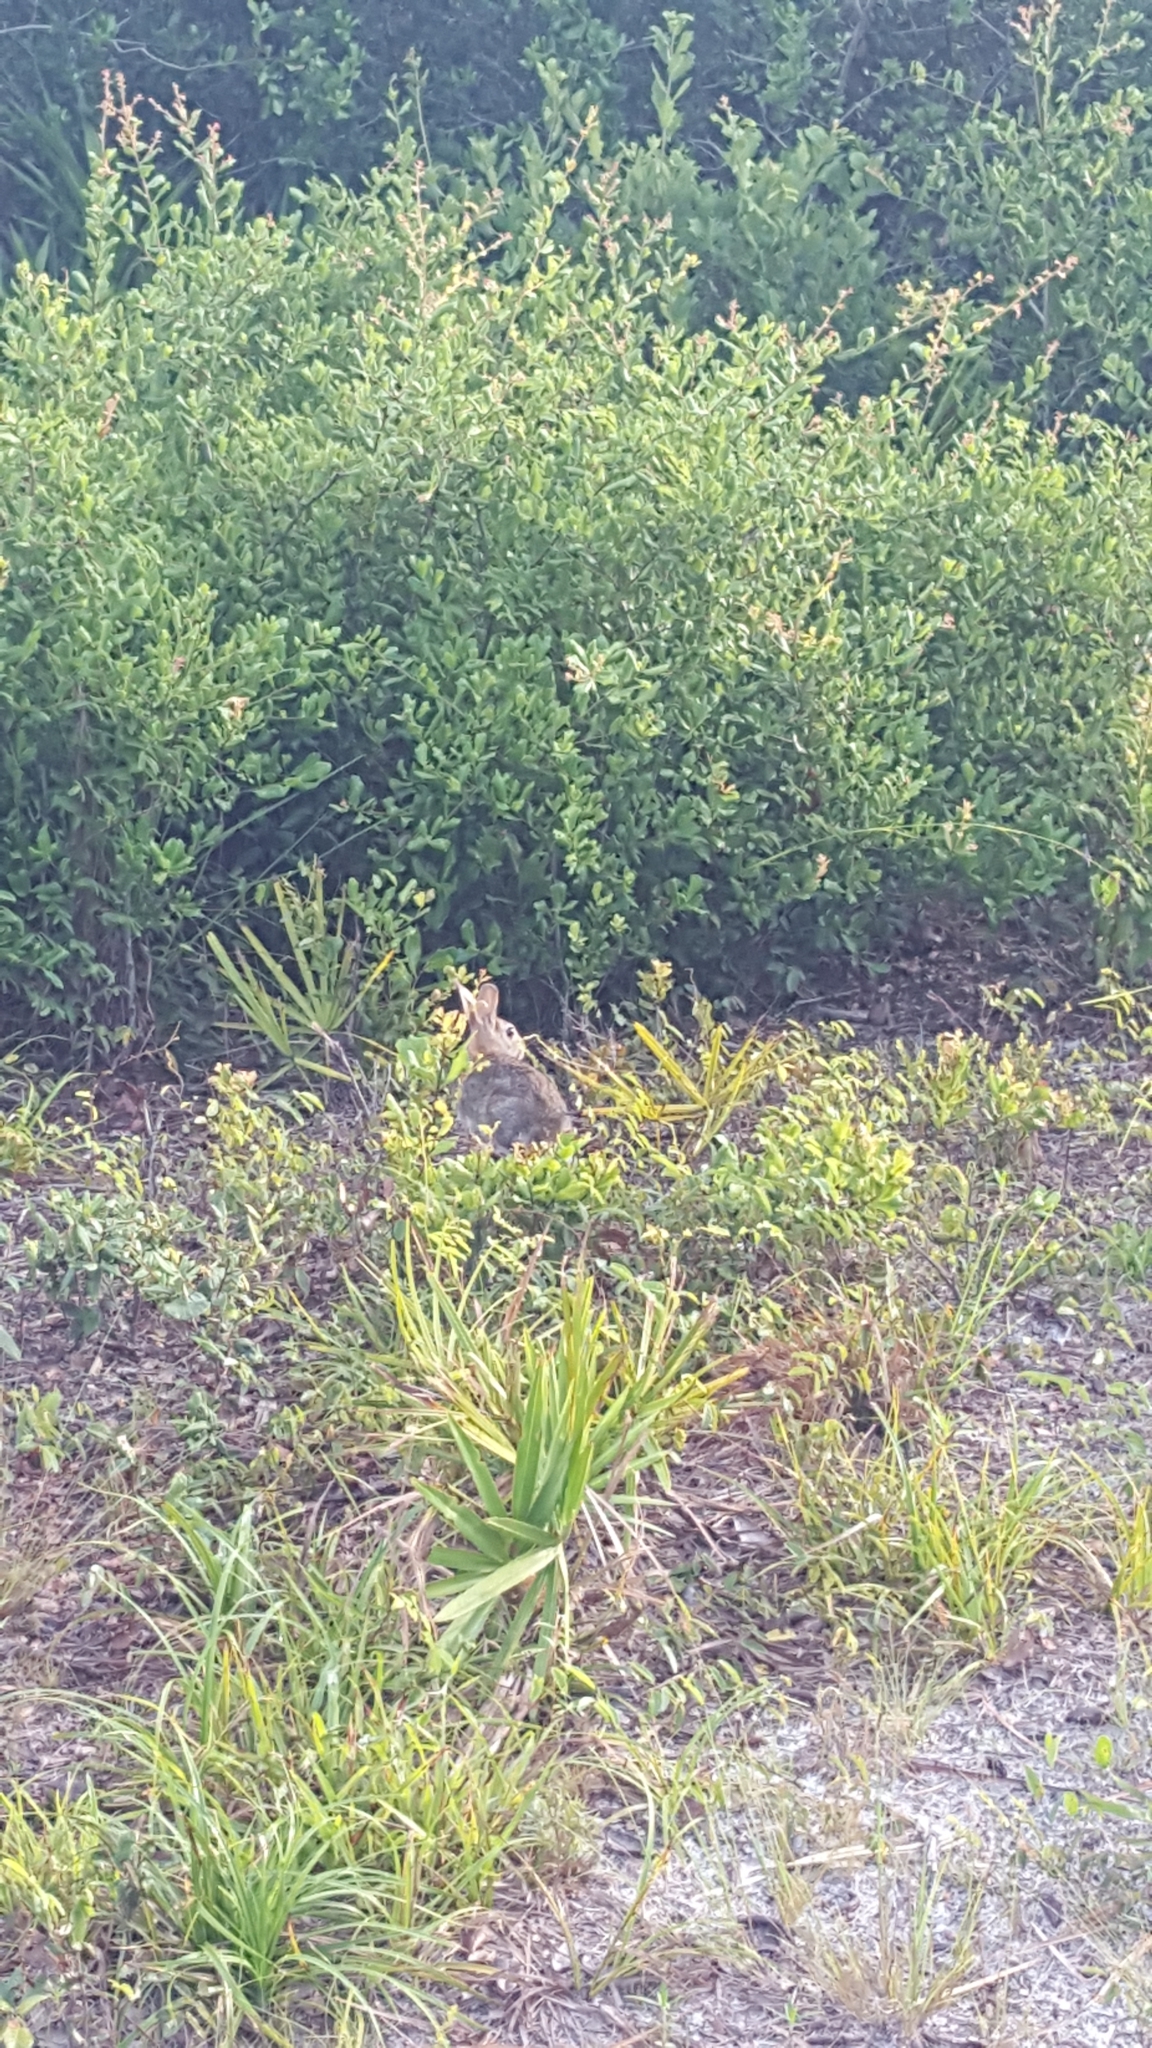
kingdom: Animalia
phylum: Chordata
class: Mammalia
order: Lagomorpha
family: Leporidae
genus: Sylvilagus
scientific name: Sylvilagus floridanus
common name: Eastern cottontail
